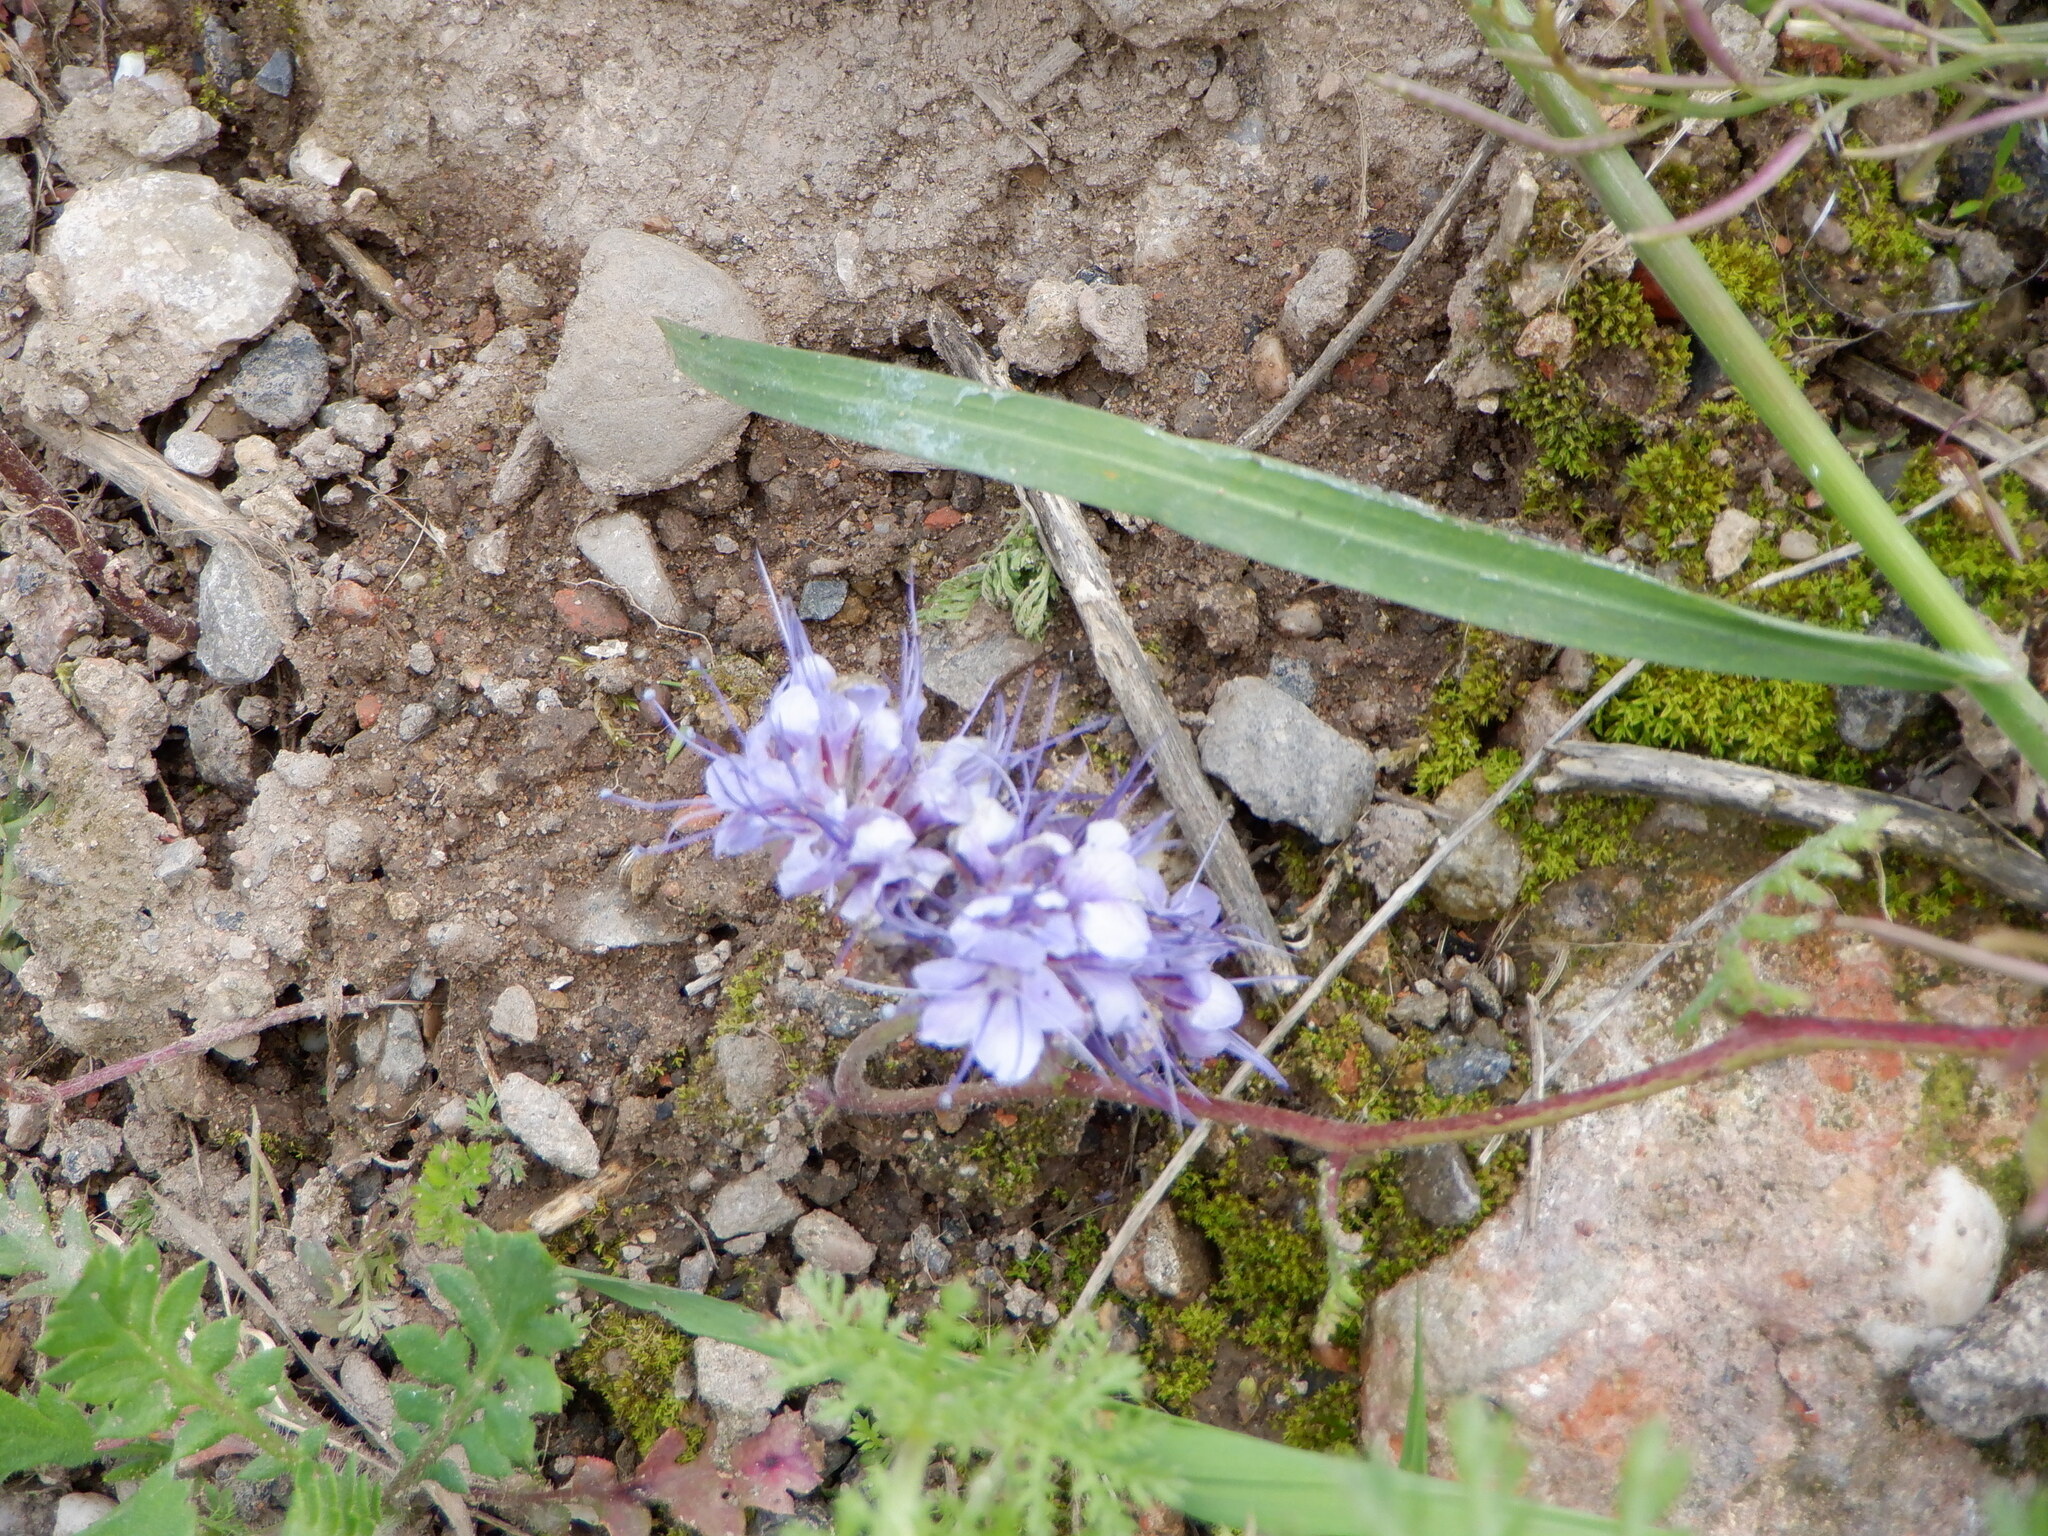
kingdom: Plantae
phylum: Tracheophyta
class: Magnoliopsida
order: Boraginales
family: Hydrophyllaceae
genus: Phacelia
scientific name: Phacelia tanacetifolia
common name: Phacelia
